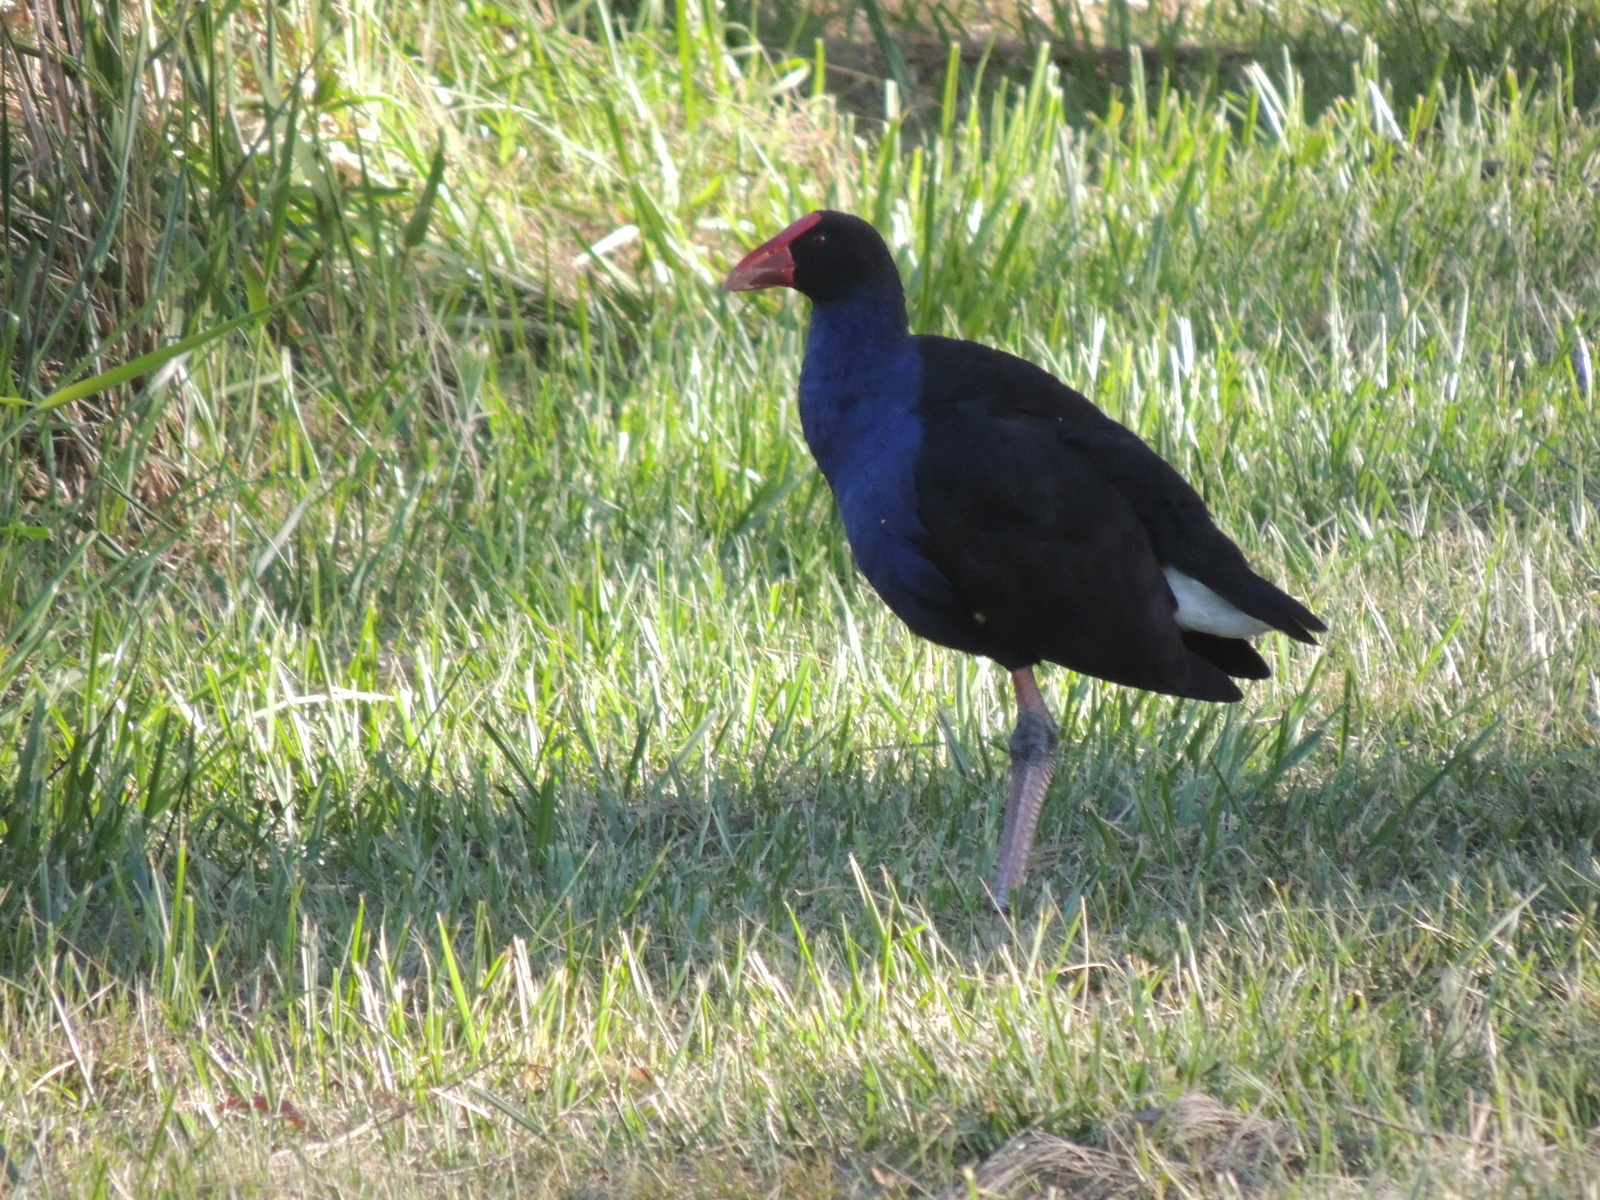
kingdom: Animalia
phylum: Chordata
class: Aves
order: Gruiformes
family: Rallidae
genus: Porphyrio
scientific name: Porphyrio melanotus
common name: Australasian swamphen
